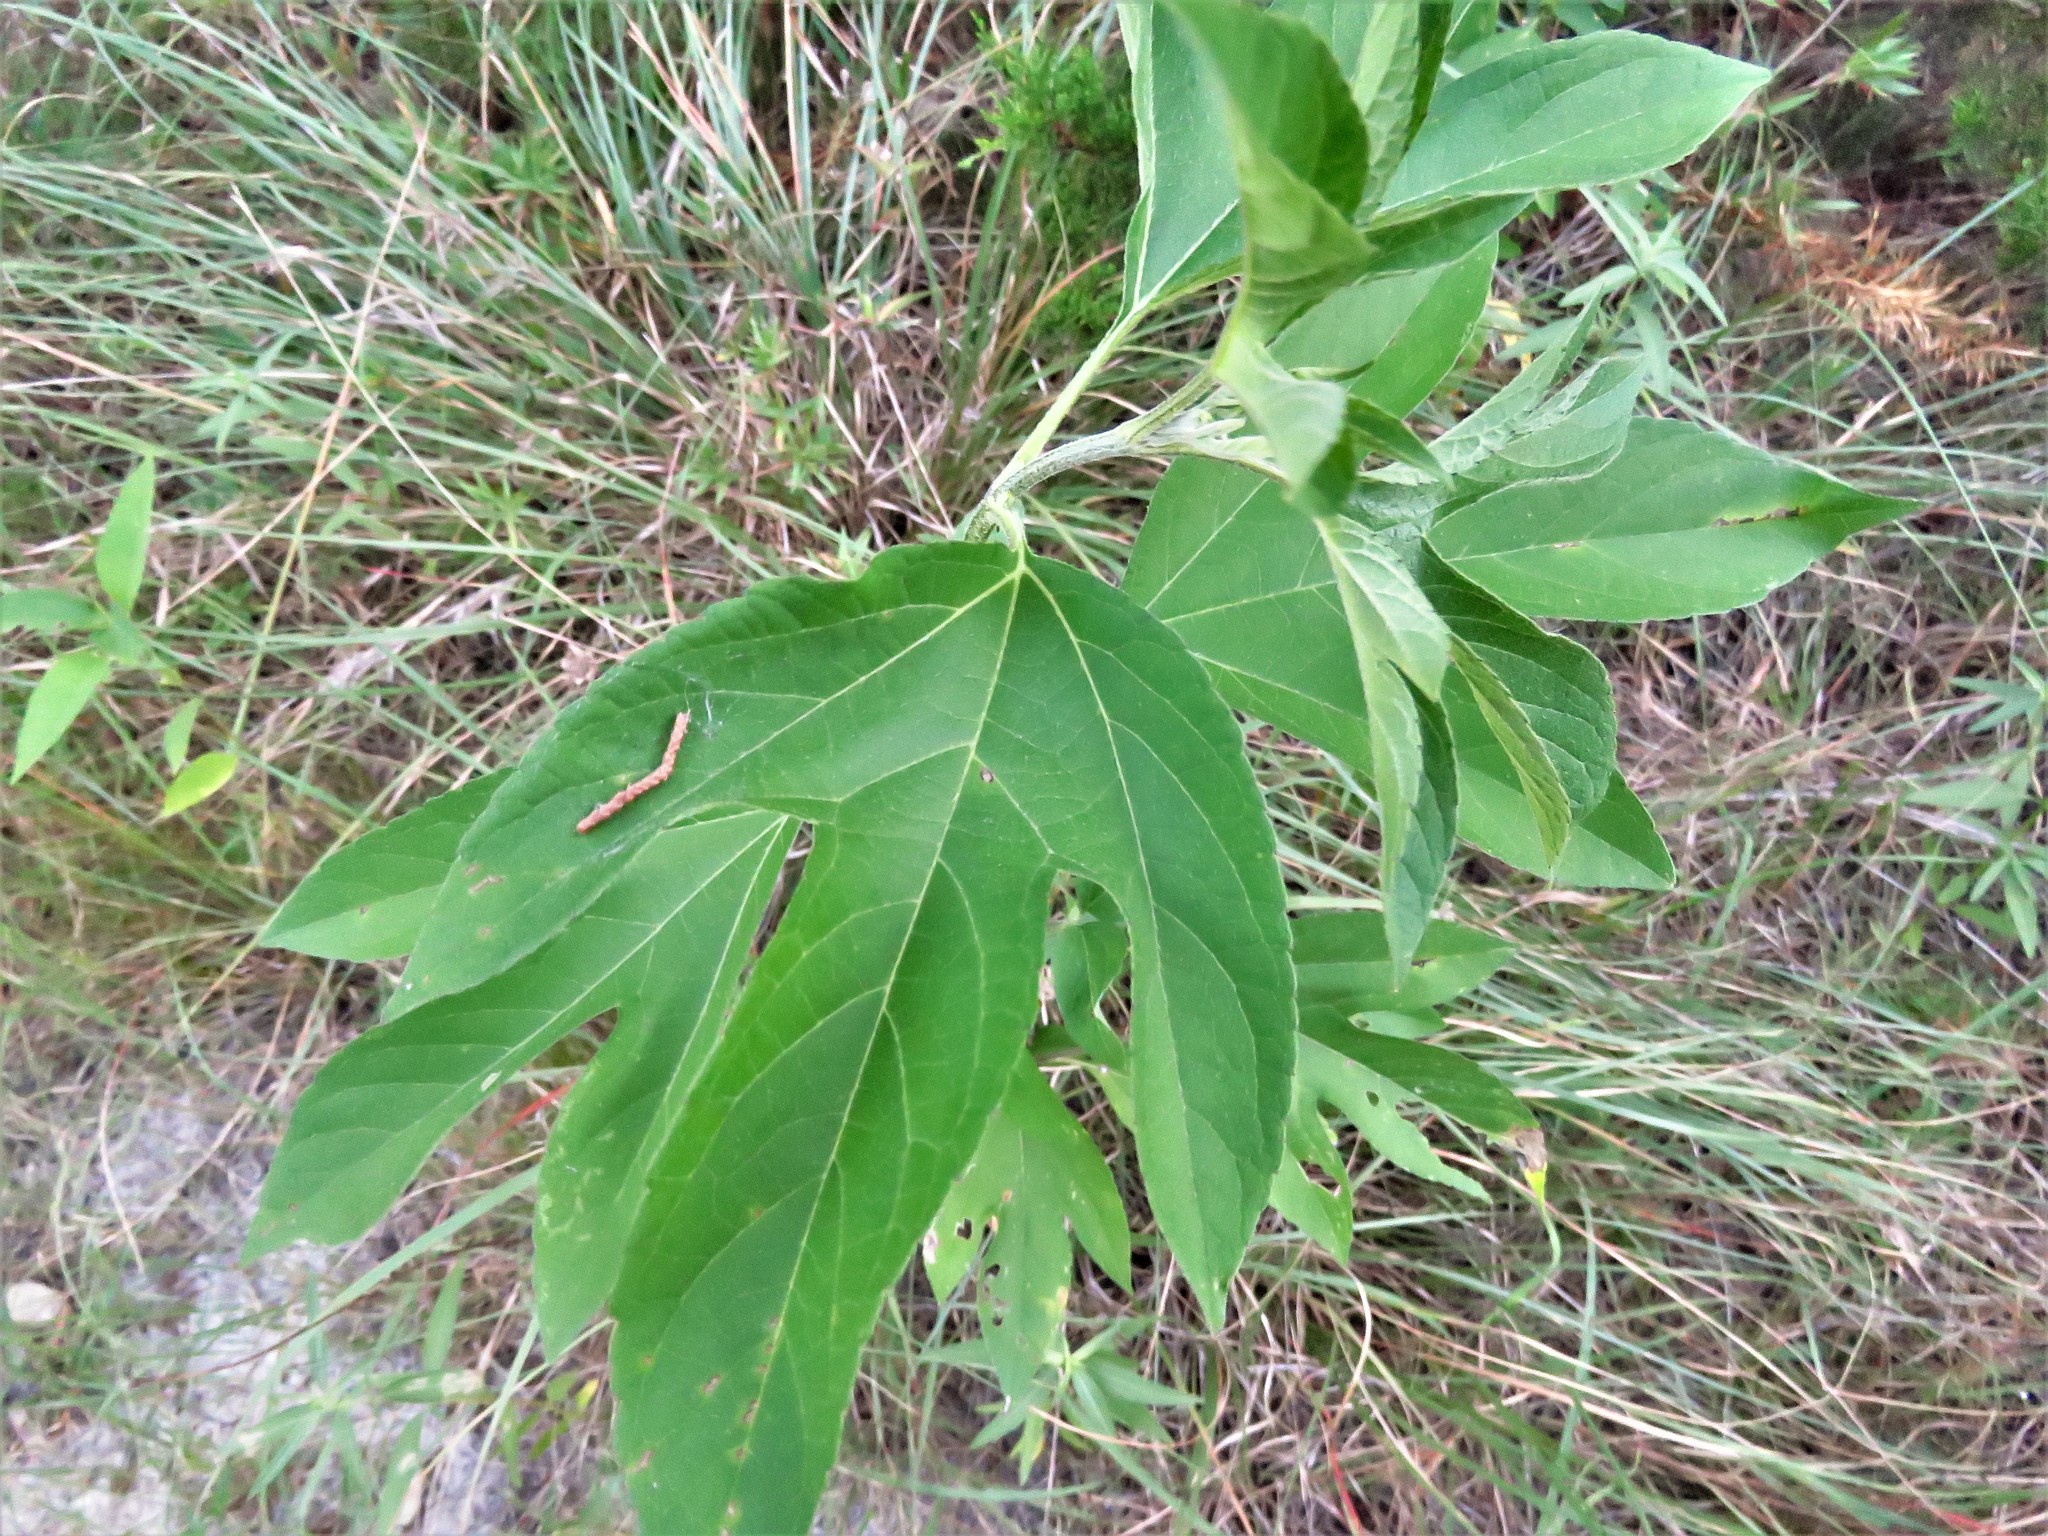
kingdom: Plantae
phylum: Tracheophyta
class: Magnoliopsida
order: Asterales
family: Asteraceae
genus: Ambrosia
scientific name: Ambrosia trifida
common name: Giant ragweed
